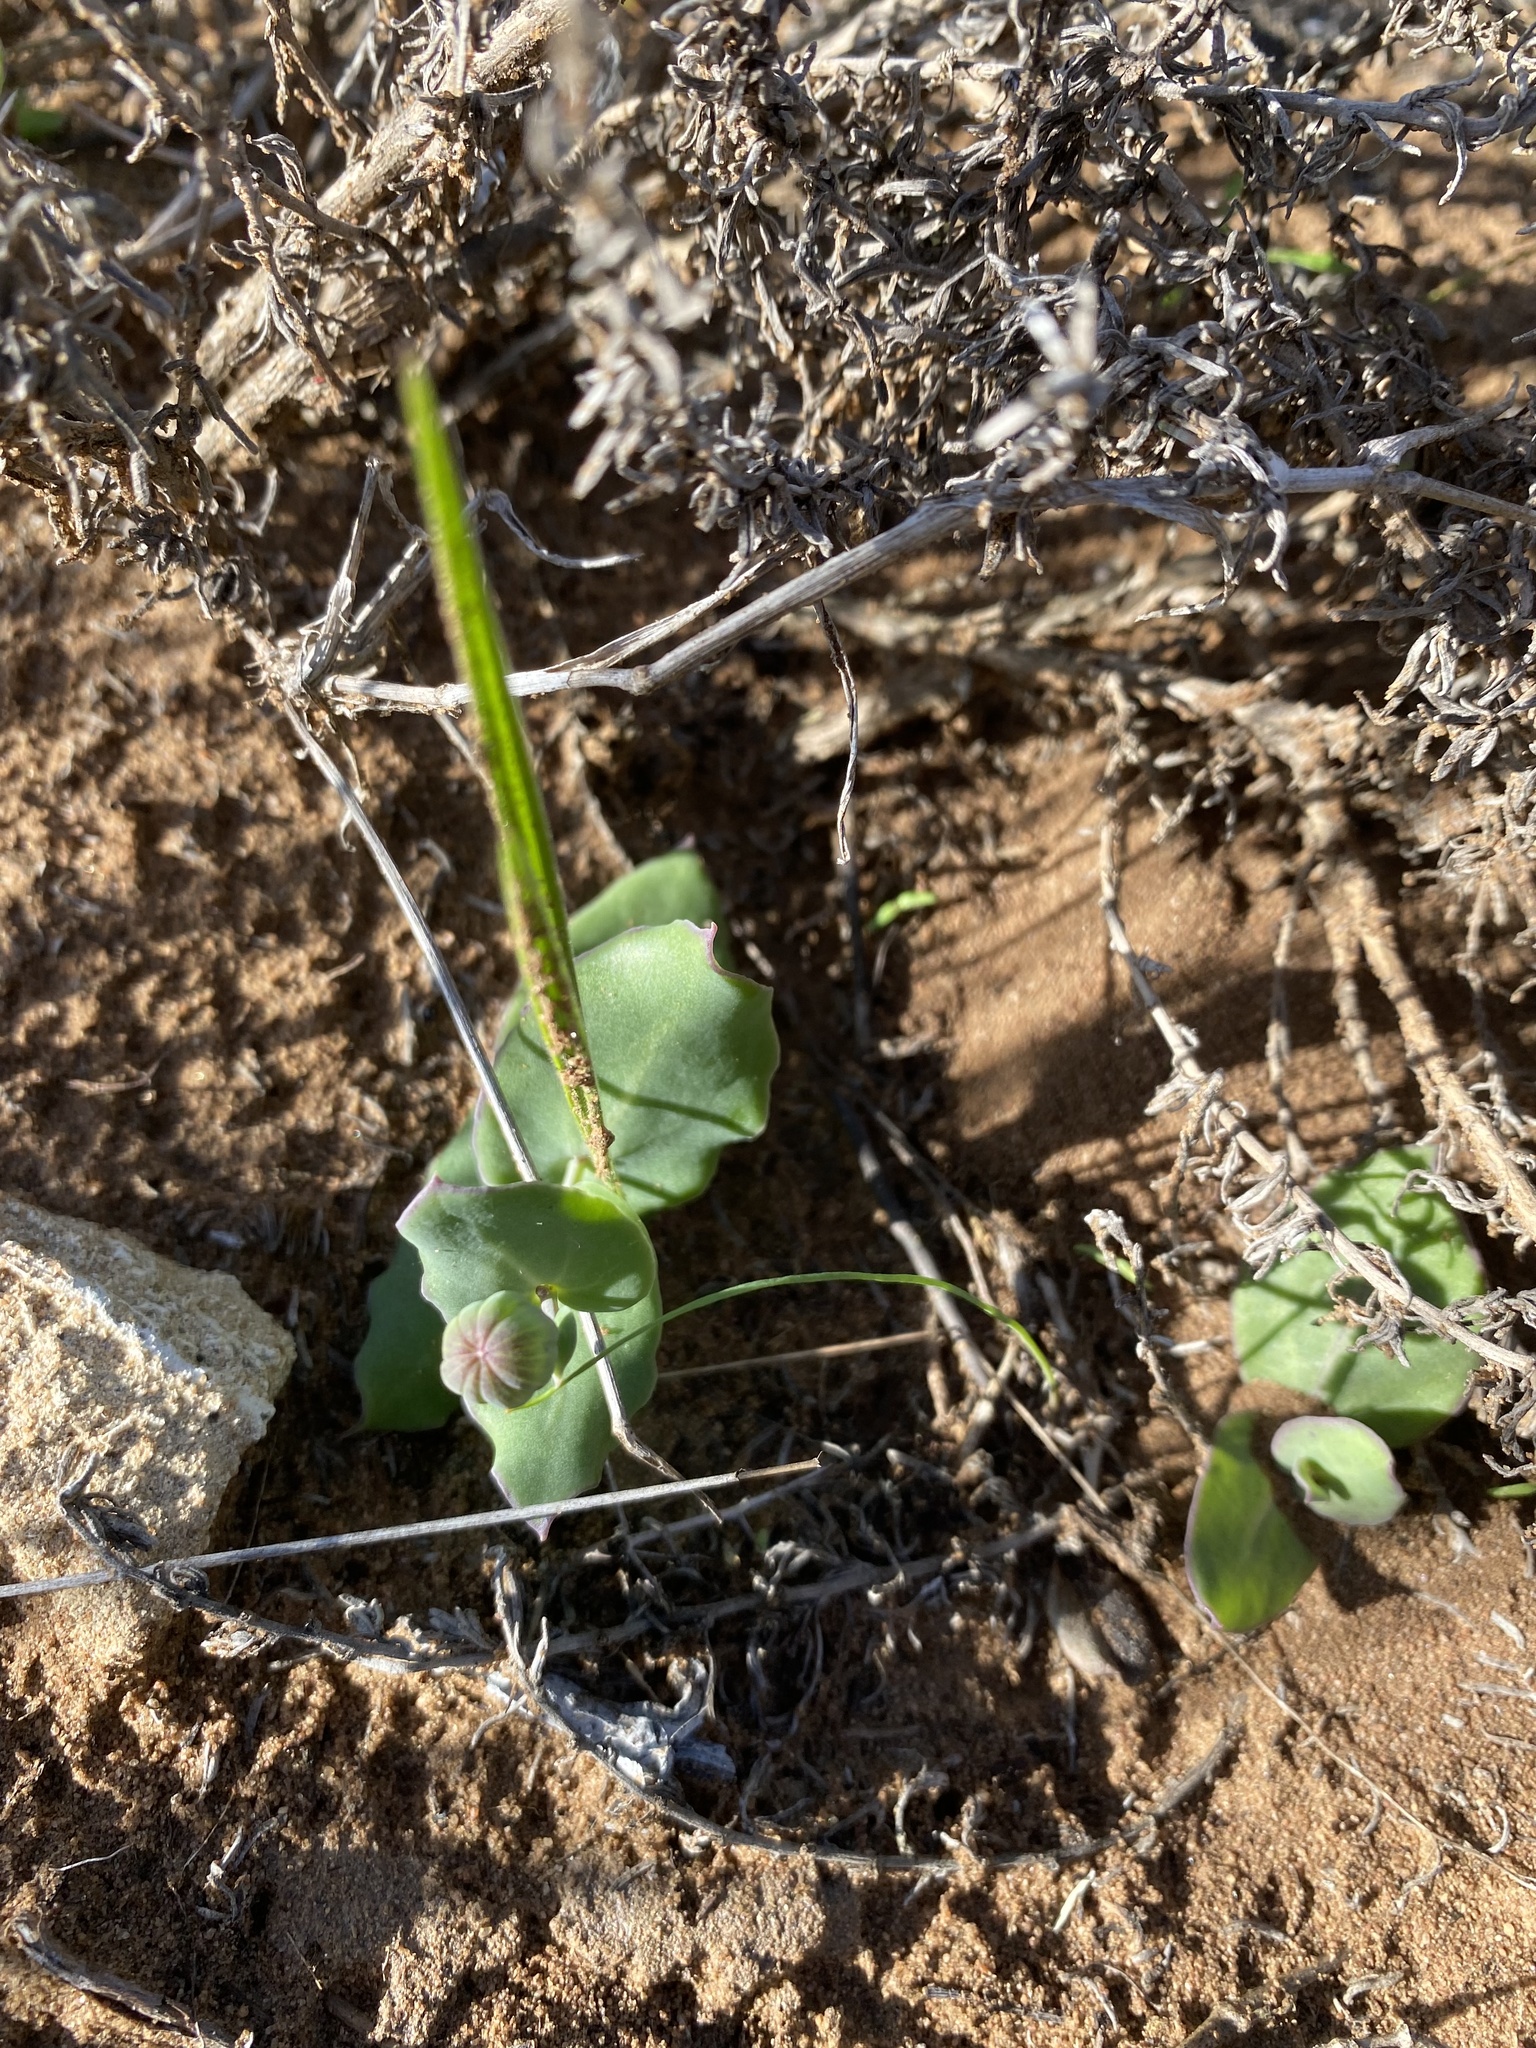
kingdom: Plantae
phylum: Tracheophyta
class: Magnoliopsida
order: Asterales
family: Asteraceae
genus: Othonna
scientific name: Othonna undulosa
